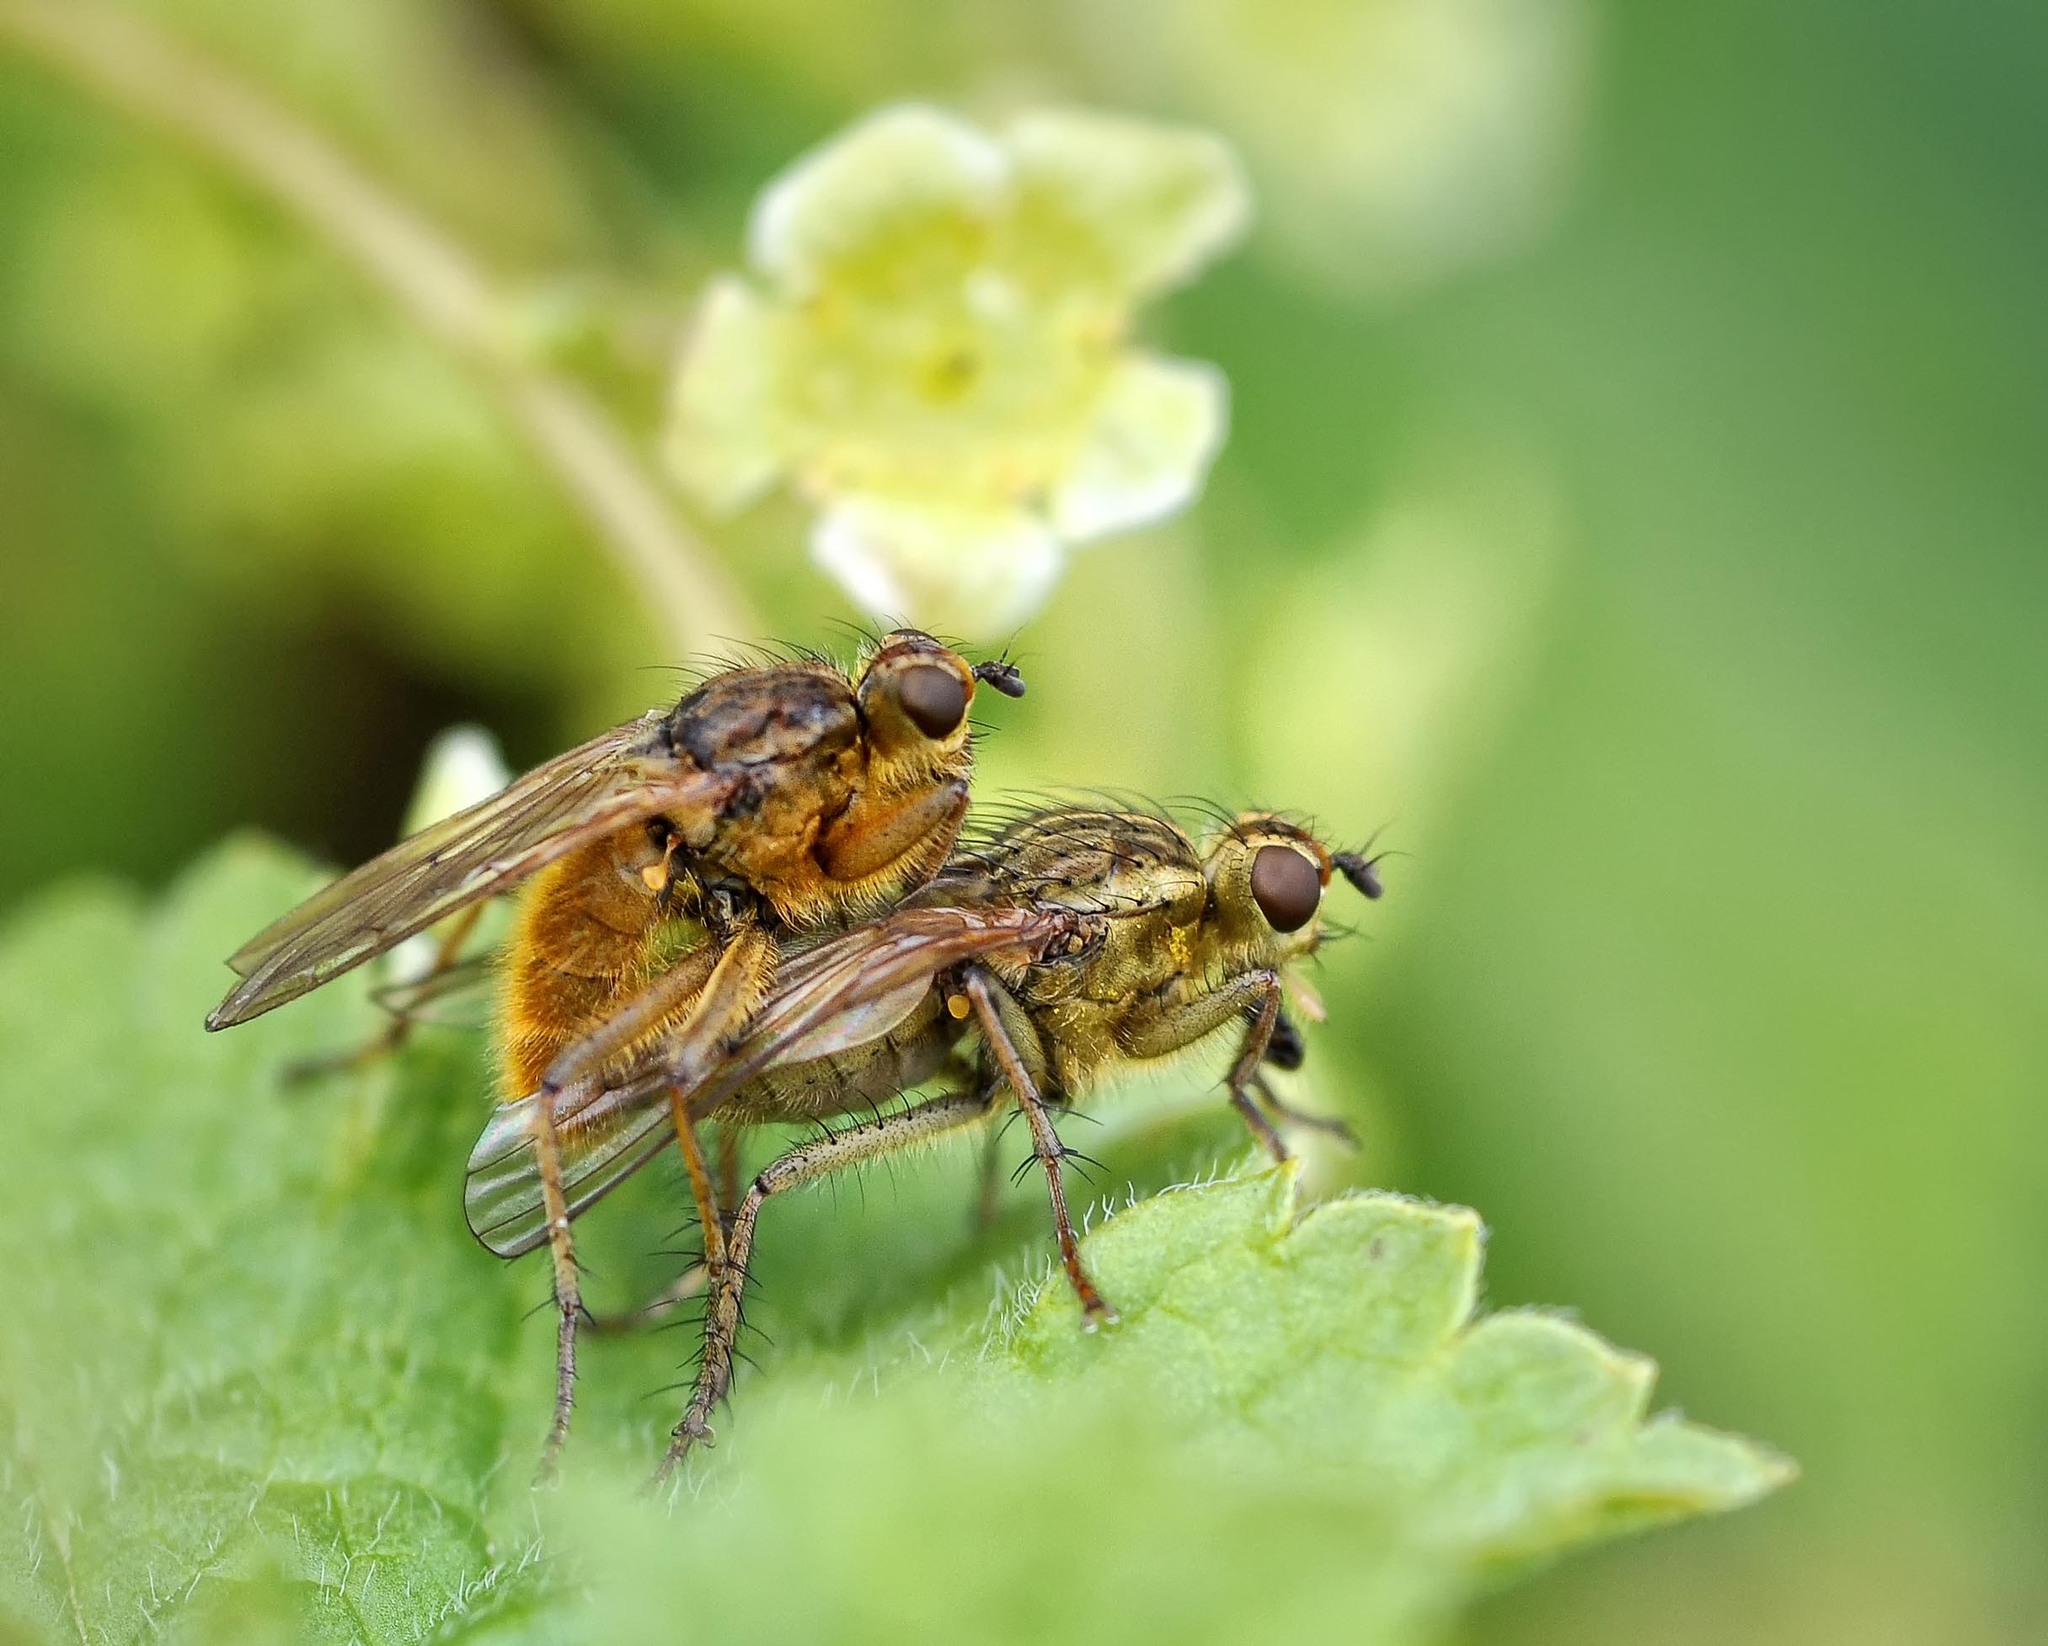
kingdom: Animalia
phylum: Arthropoda
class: Insecta
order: Diptera
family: Scathophagidae
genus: Scathophaga
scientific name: Scathophaga stercoraria
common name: Yellow dung fly
